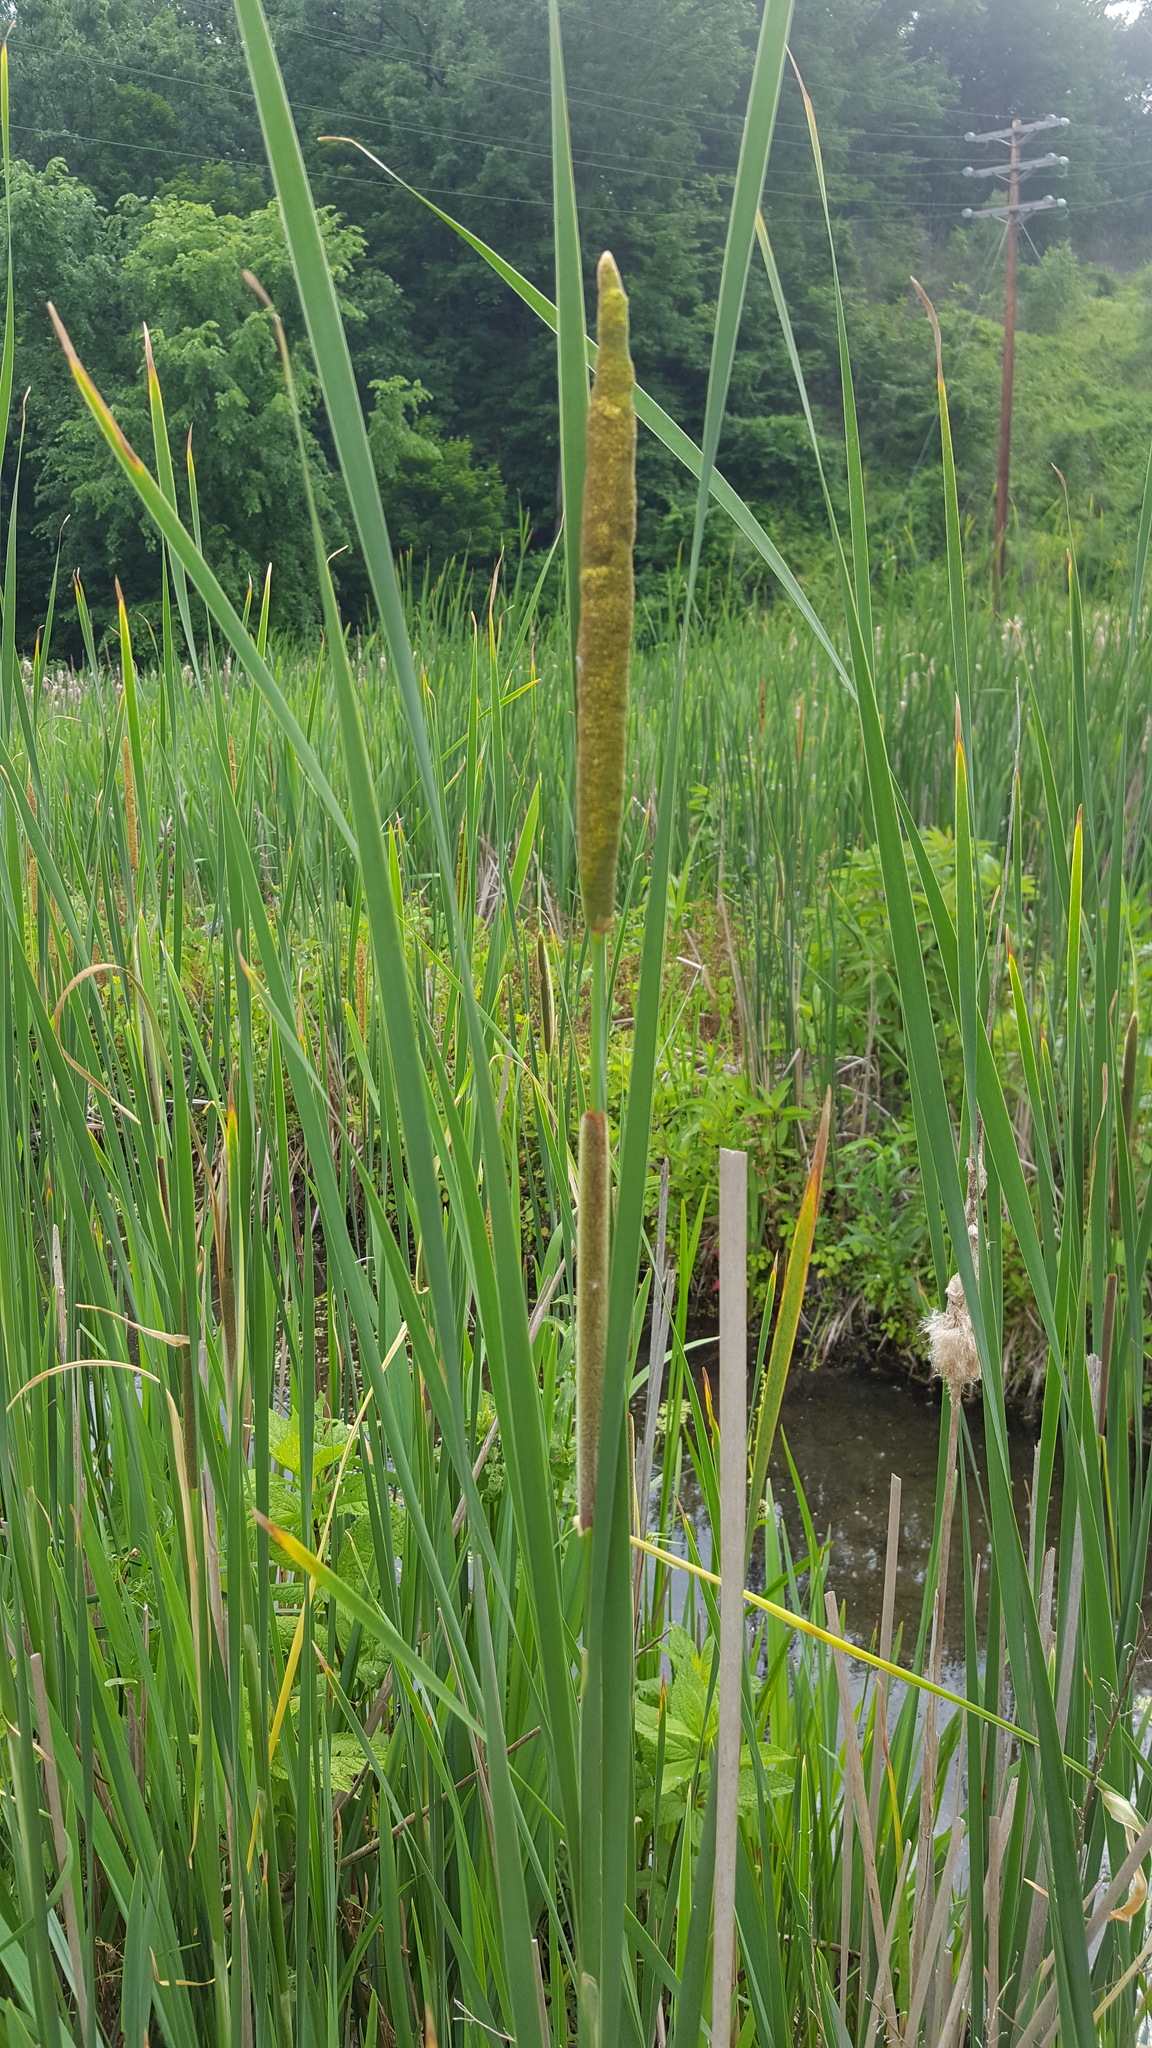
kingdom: Plantae
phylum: Tracheophyta
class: Liliopsida
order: Poales
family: Typhaceae
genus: Typha
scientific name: Typha angustifolia
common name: Lesser bulrush
